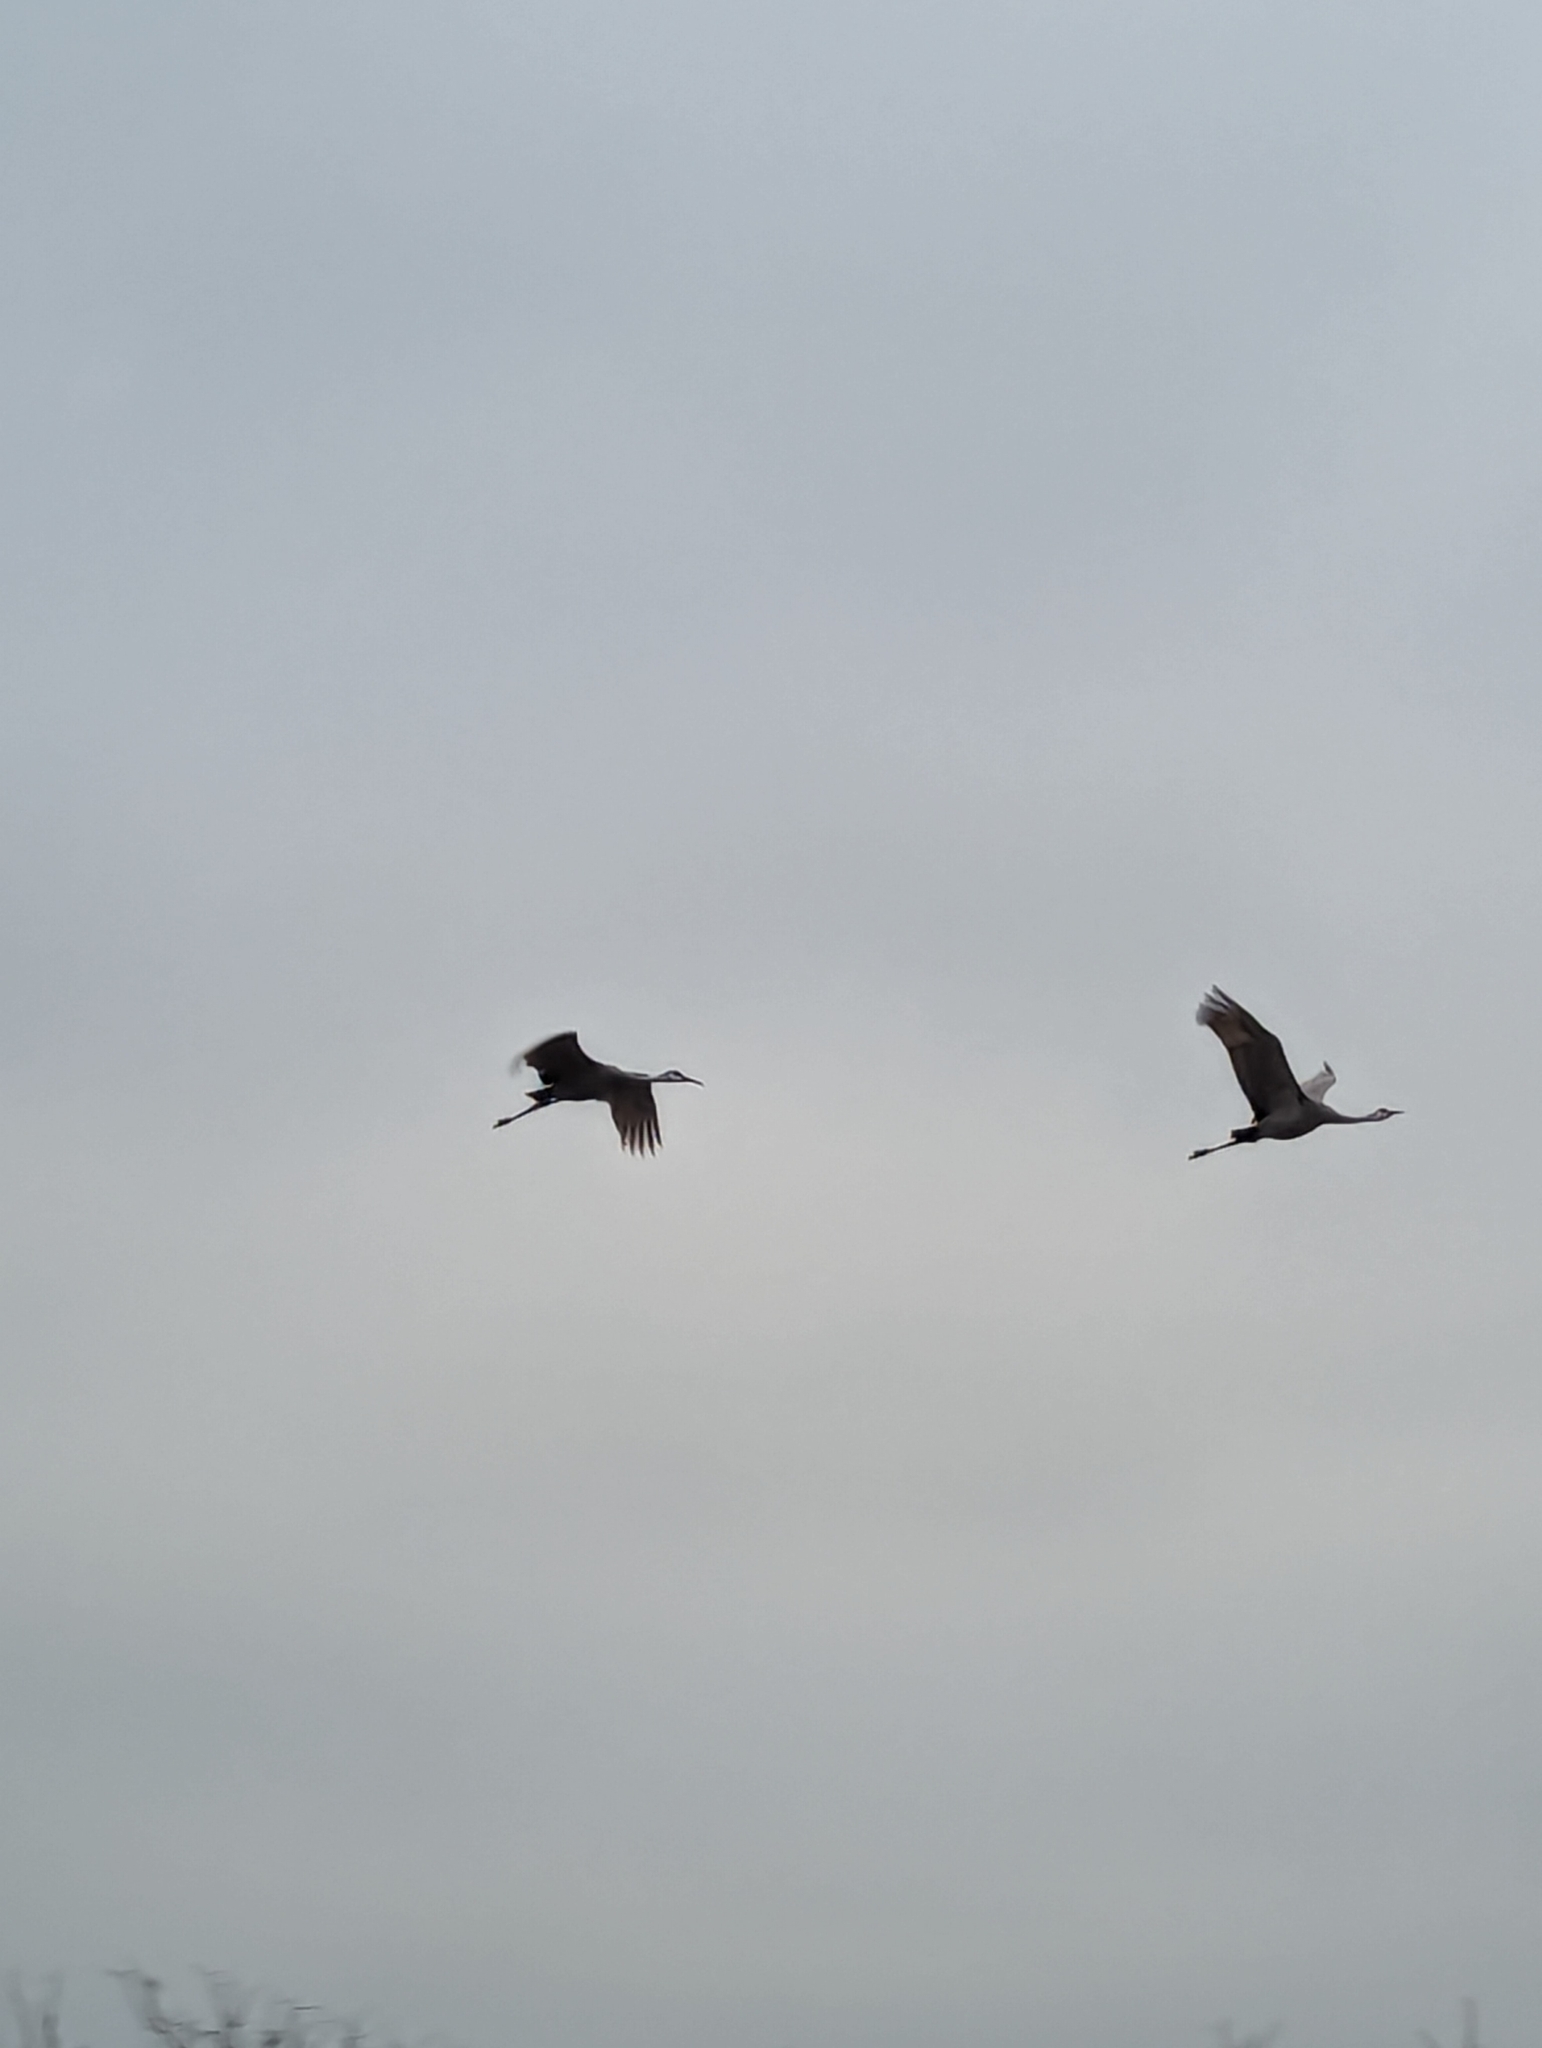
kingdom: Animalia
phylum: Chordata
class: Aves
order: Gruiformes
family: Gruidae
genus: Grus
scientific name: Grus canadensis
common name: Sandhill crane
